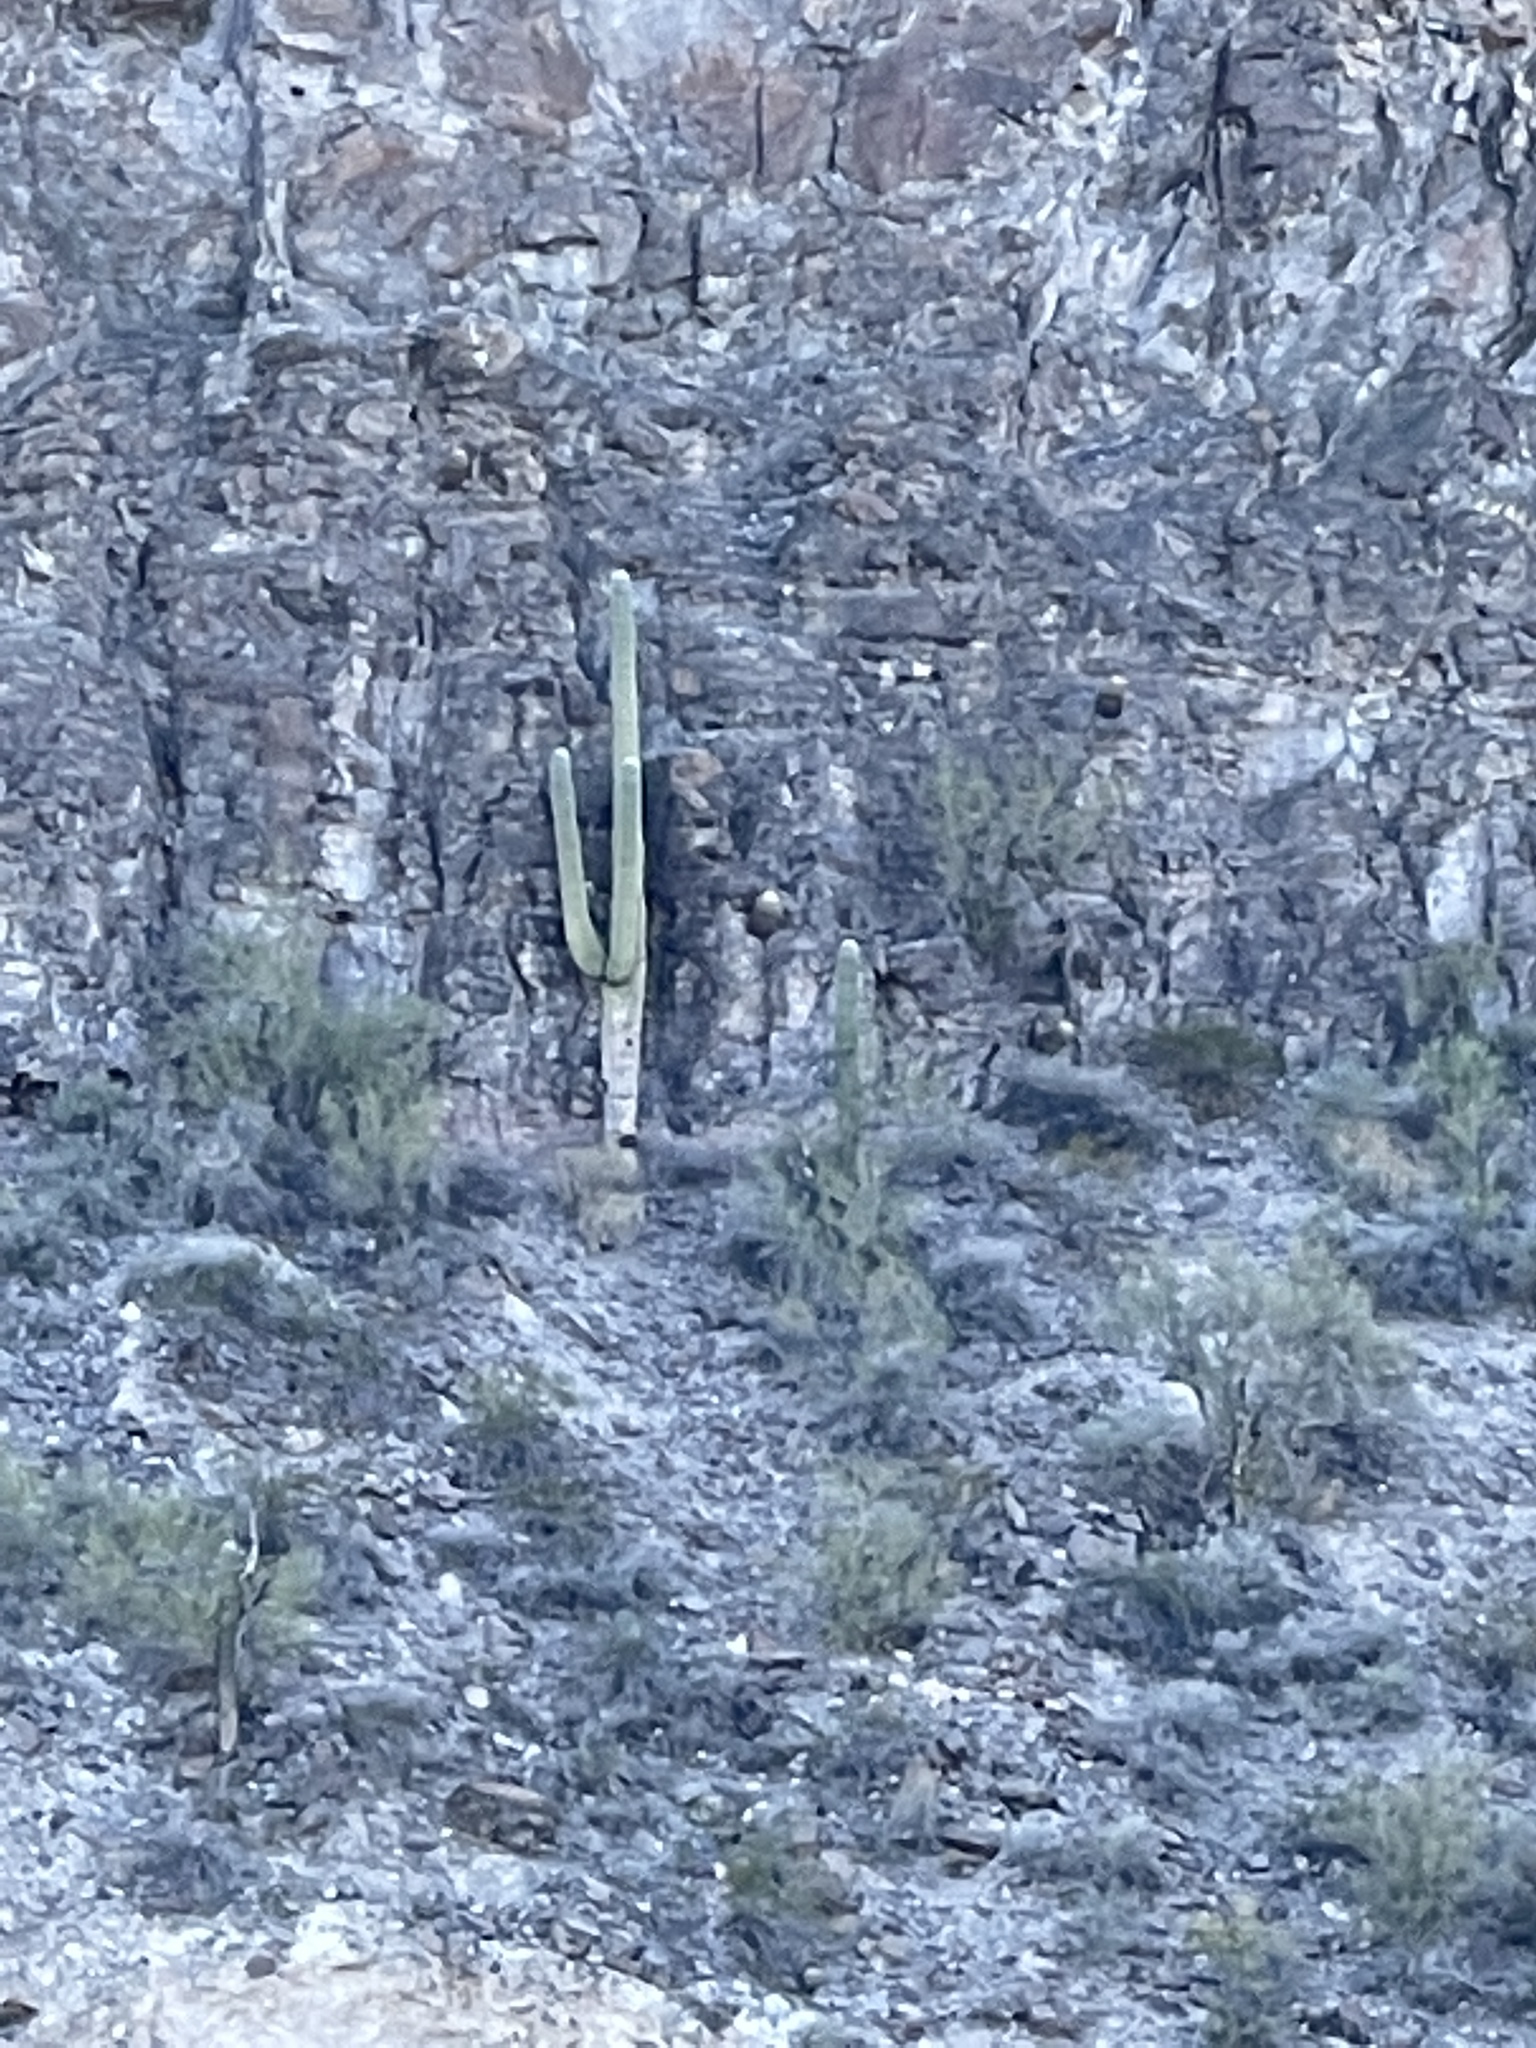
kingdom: Plantae
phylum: Tracheophyta
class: Magnoliopsida
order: Caryophyllales
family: Cactaceae
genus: Carnegiea
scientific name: Carnegiea gigantea
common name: Saguaro
